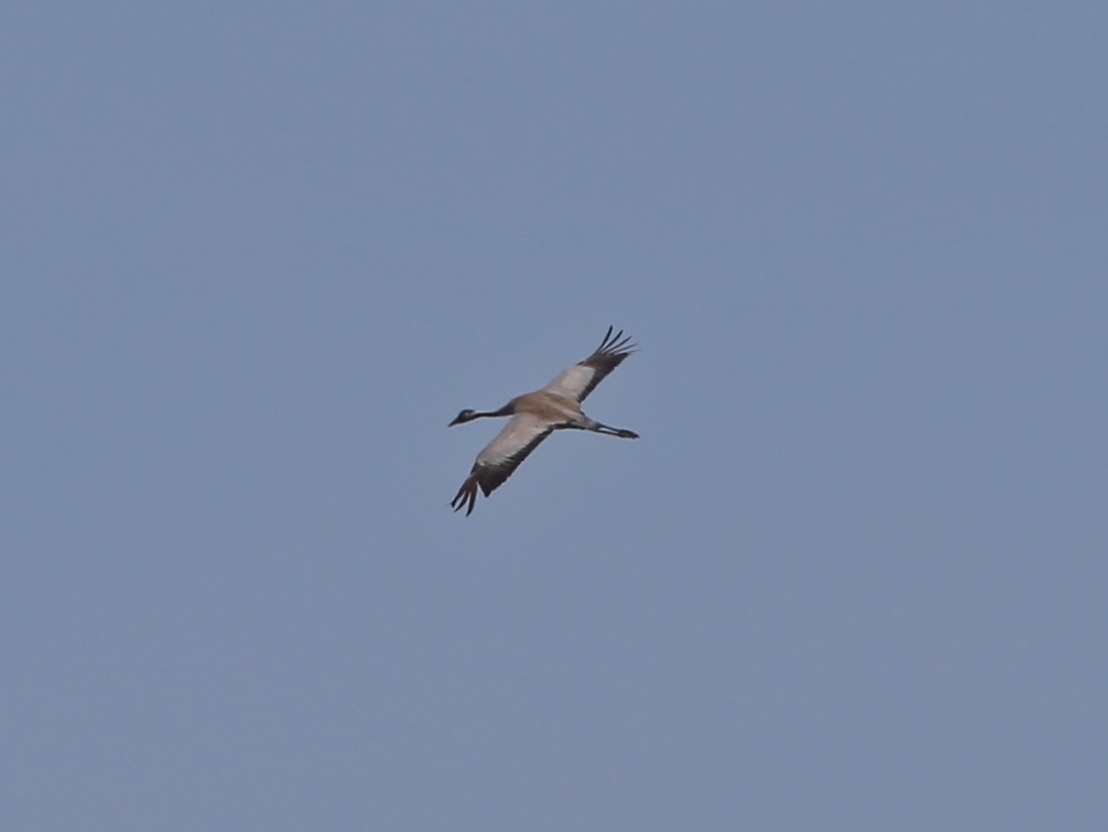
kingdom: Animalia
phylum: Chordata
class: Aves
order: Gruiformes
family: Gruidae
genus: Grus
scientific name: Grus grus
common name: Common crane
